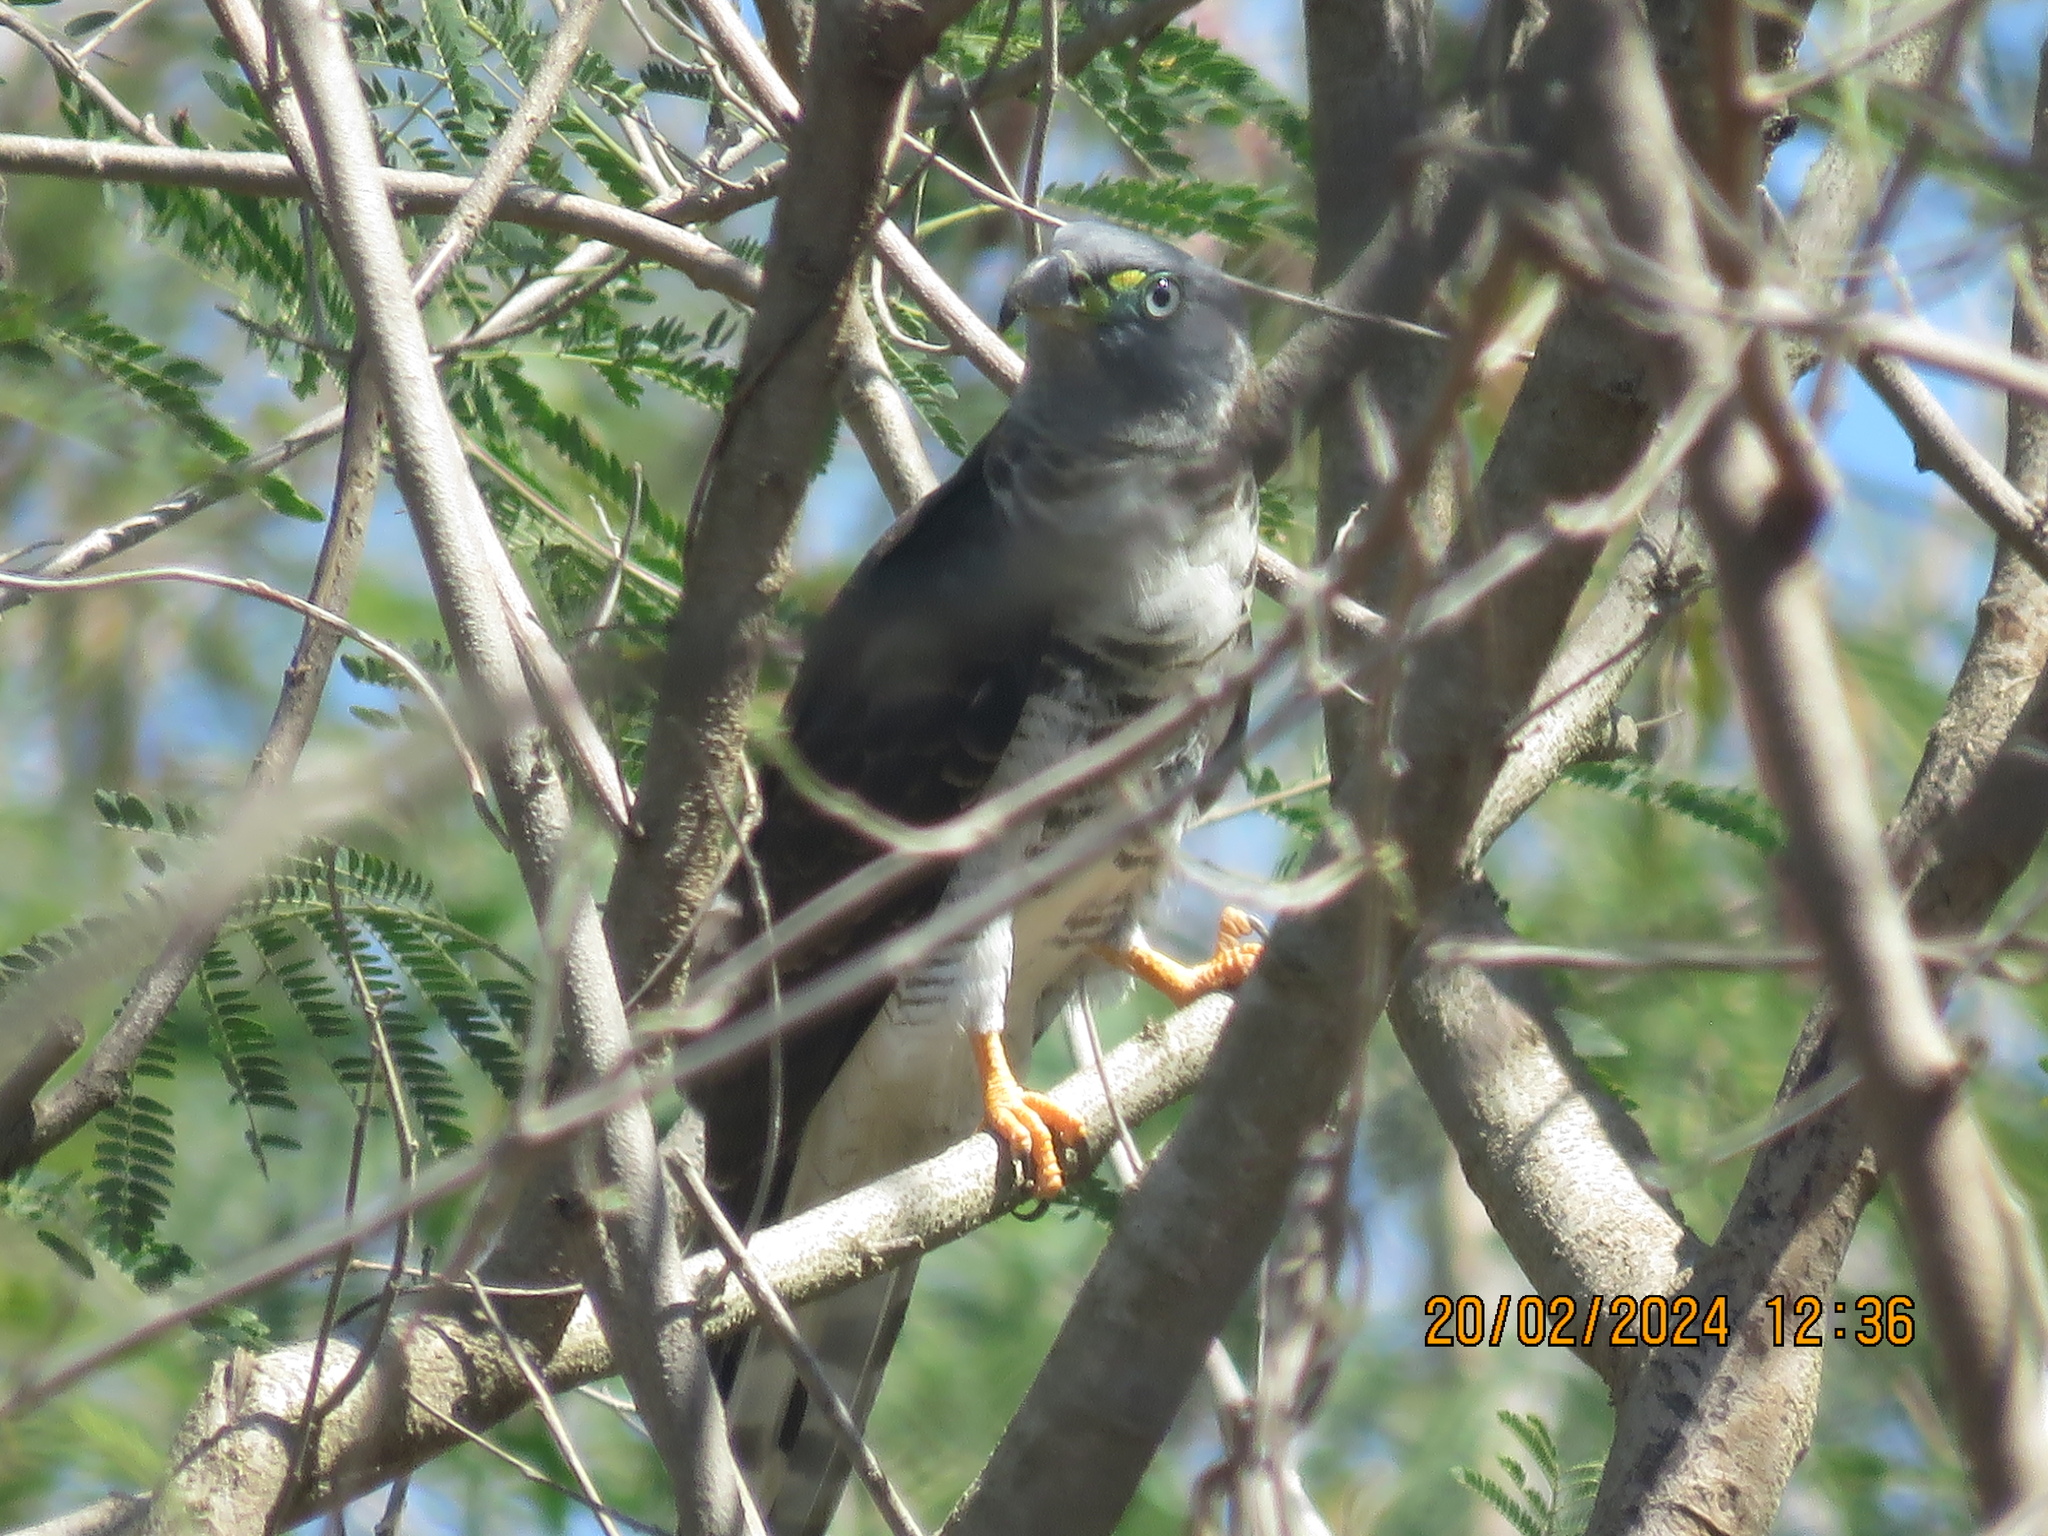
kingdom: Animalia
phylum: Chordata
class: Aves
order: Accipitriformes
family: Accipitridae
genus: Chondrohierax
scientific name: Chondrohierax uncinatus
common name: Hook-billed kite
